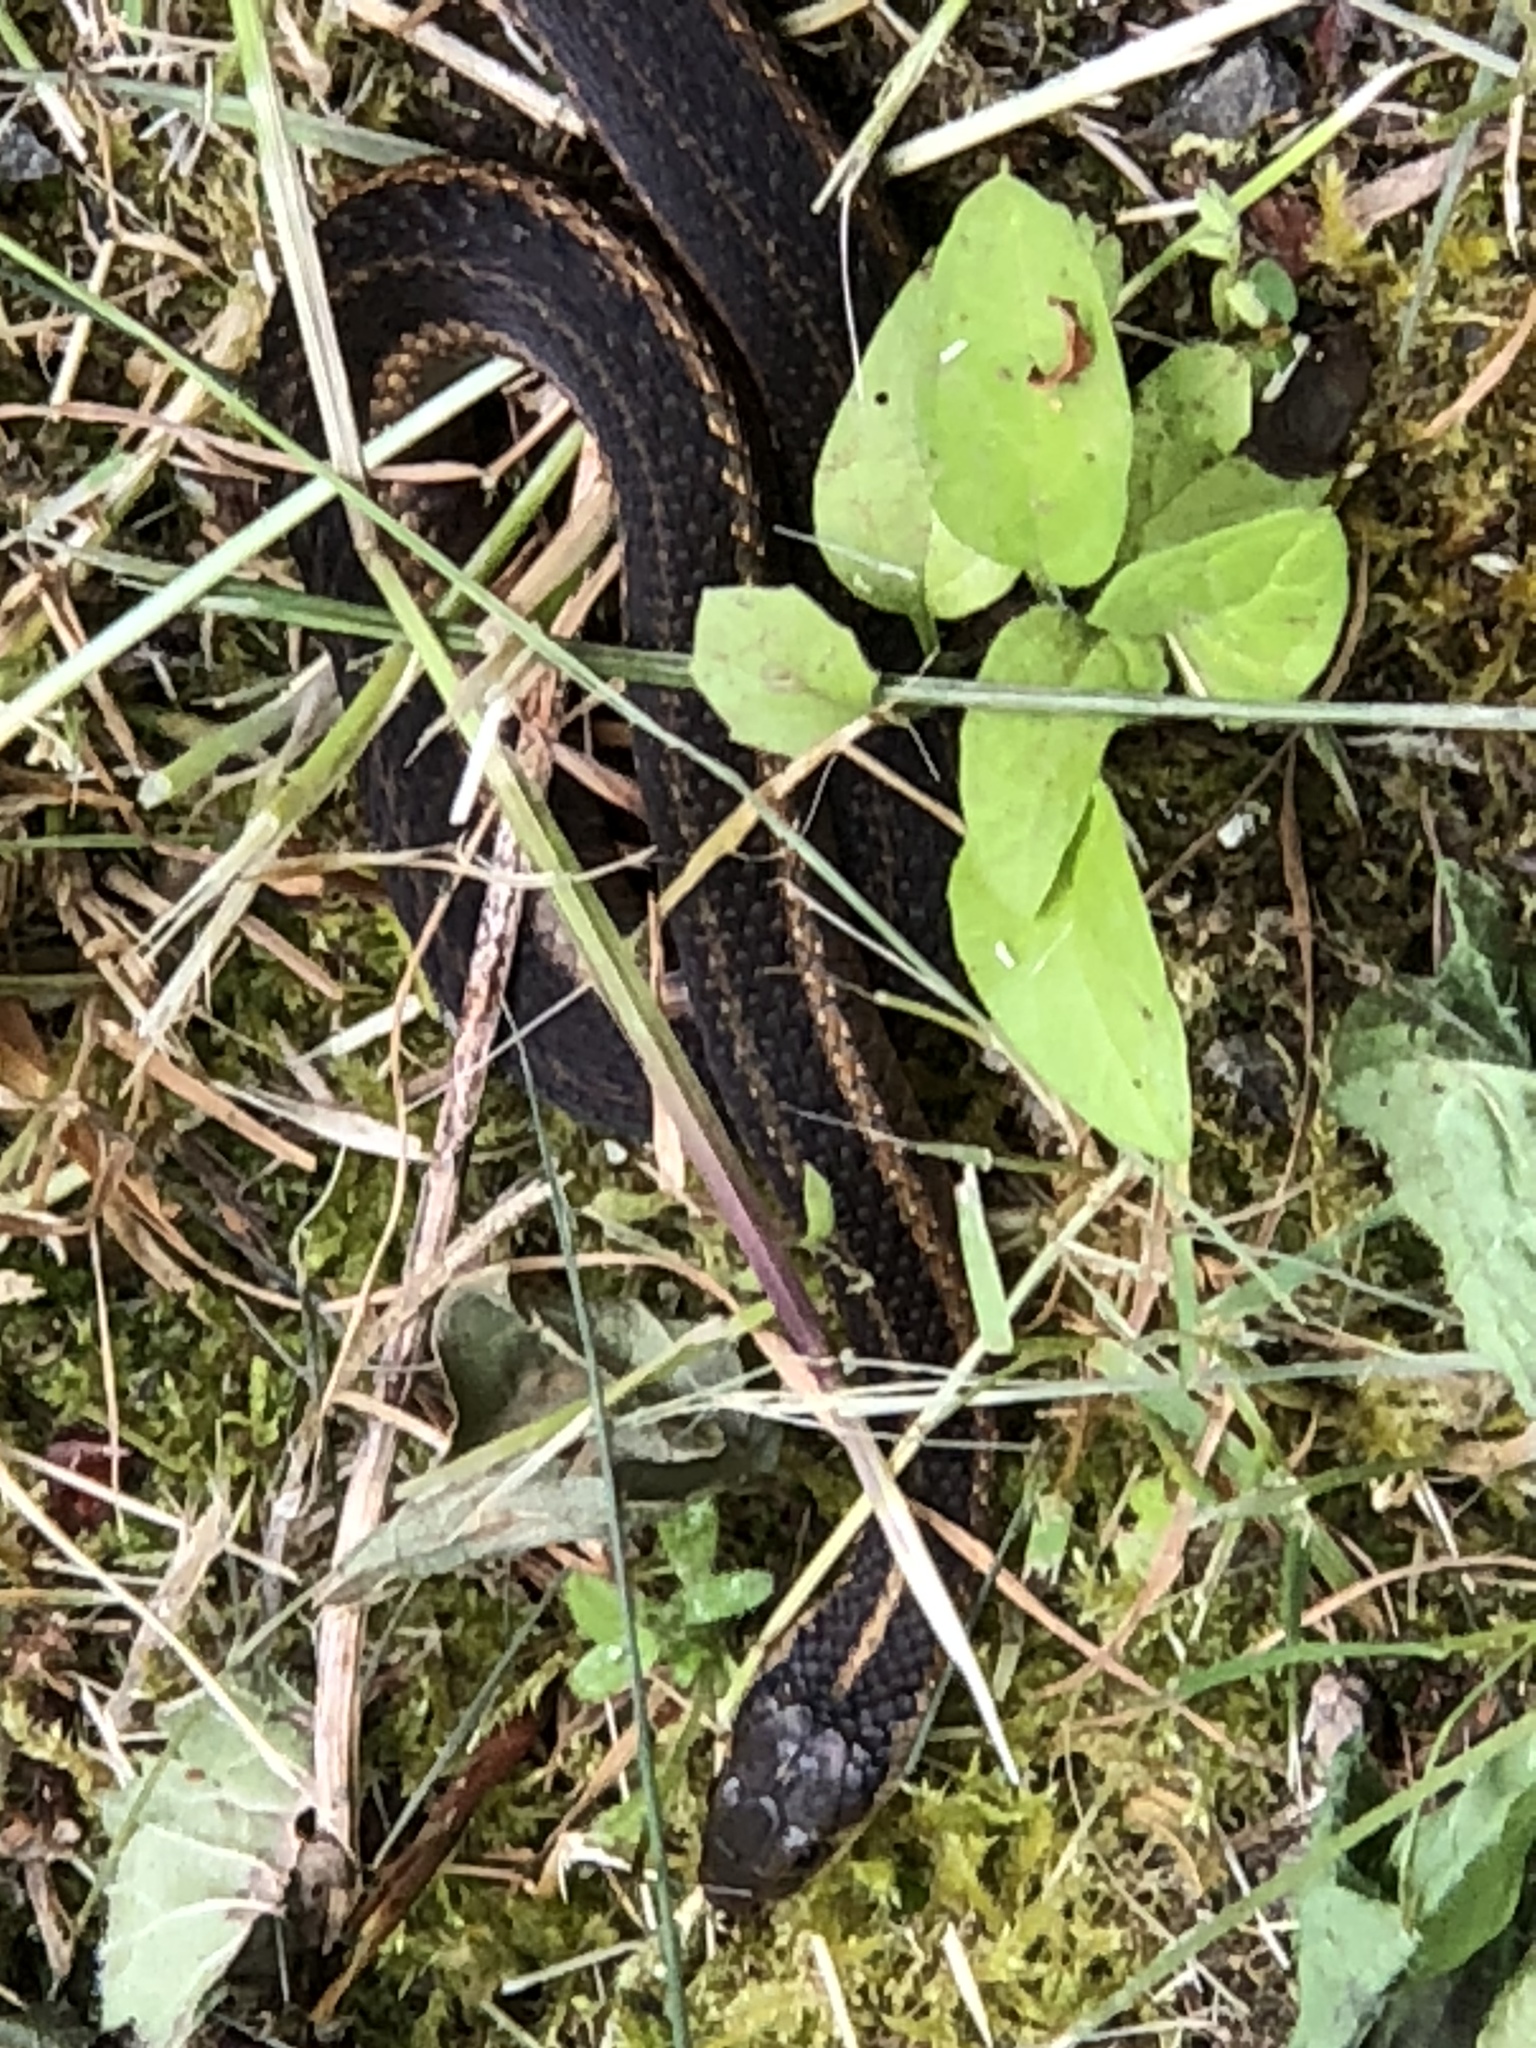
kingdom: Animalia
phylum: Chordata
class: Squamata
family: Colubridae
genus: Thamnophis
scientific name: Thamnophis ordinoides
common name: Northwestern garter snake
